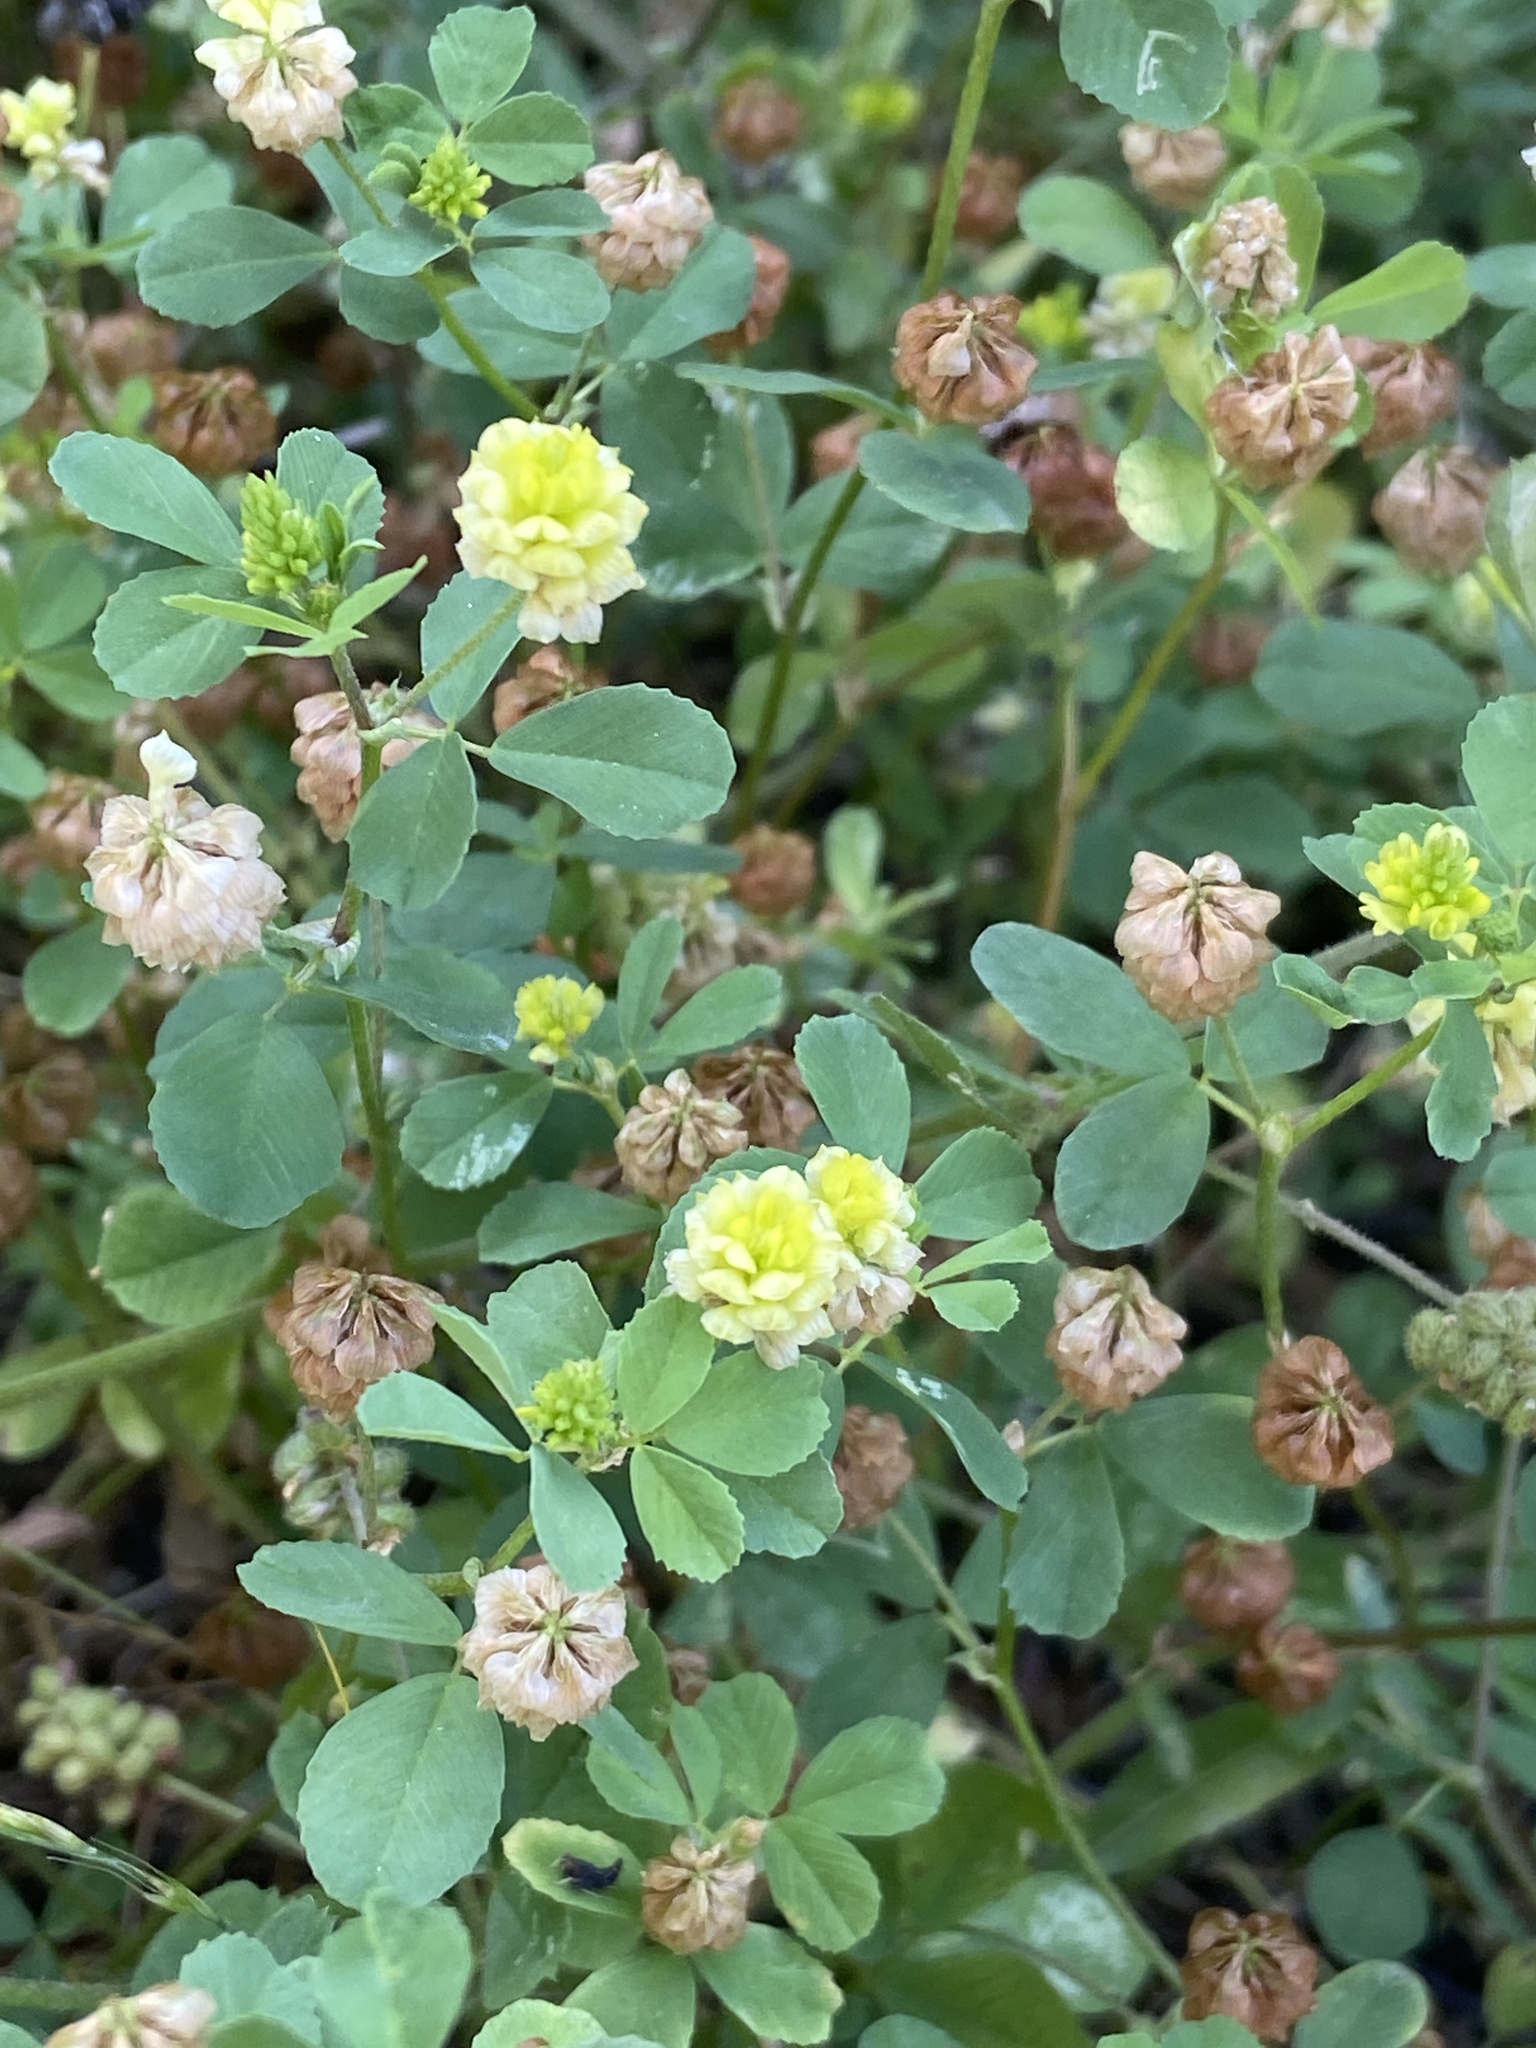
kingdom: Plantae
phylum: Tracheophyta
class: Magnoliopsida
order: Fabales
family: Fabaceae
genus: Trifolium
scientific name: Trifolium campestre
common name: Field clover
